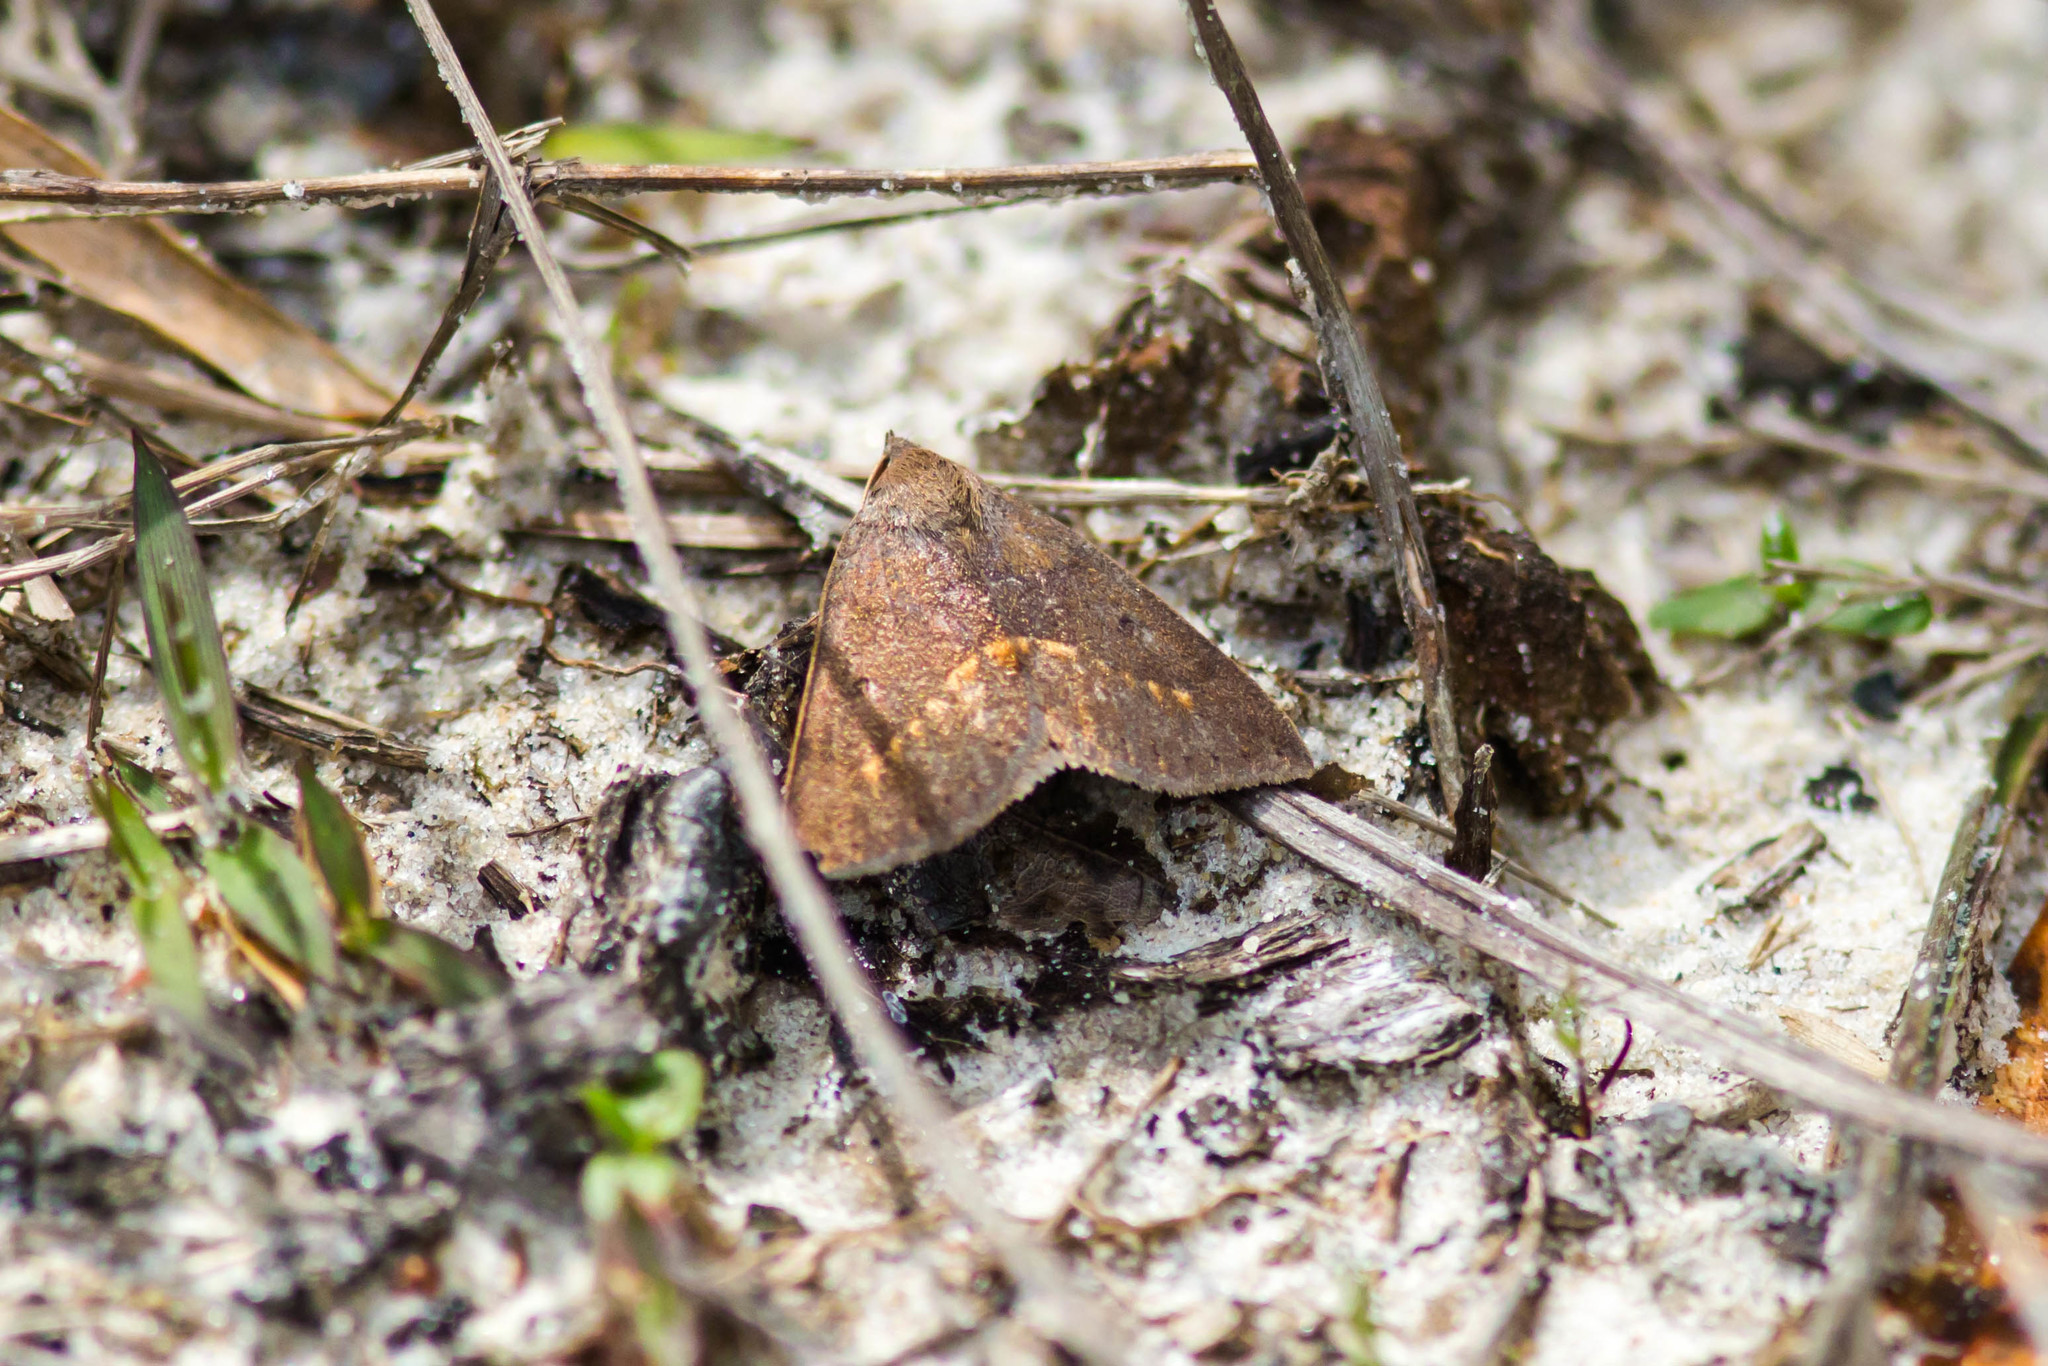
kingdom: Animalia
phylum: Arthropoda
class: Insecta
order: Lepidoptera
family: Erebidae
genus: Argyrostrotis
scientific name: Argyrostrotis flavistriaria
